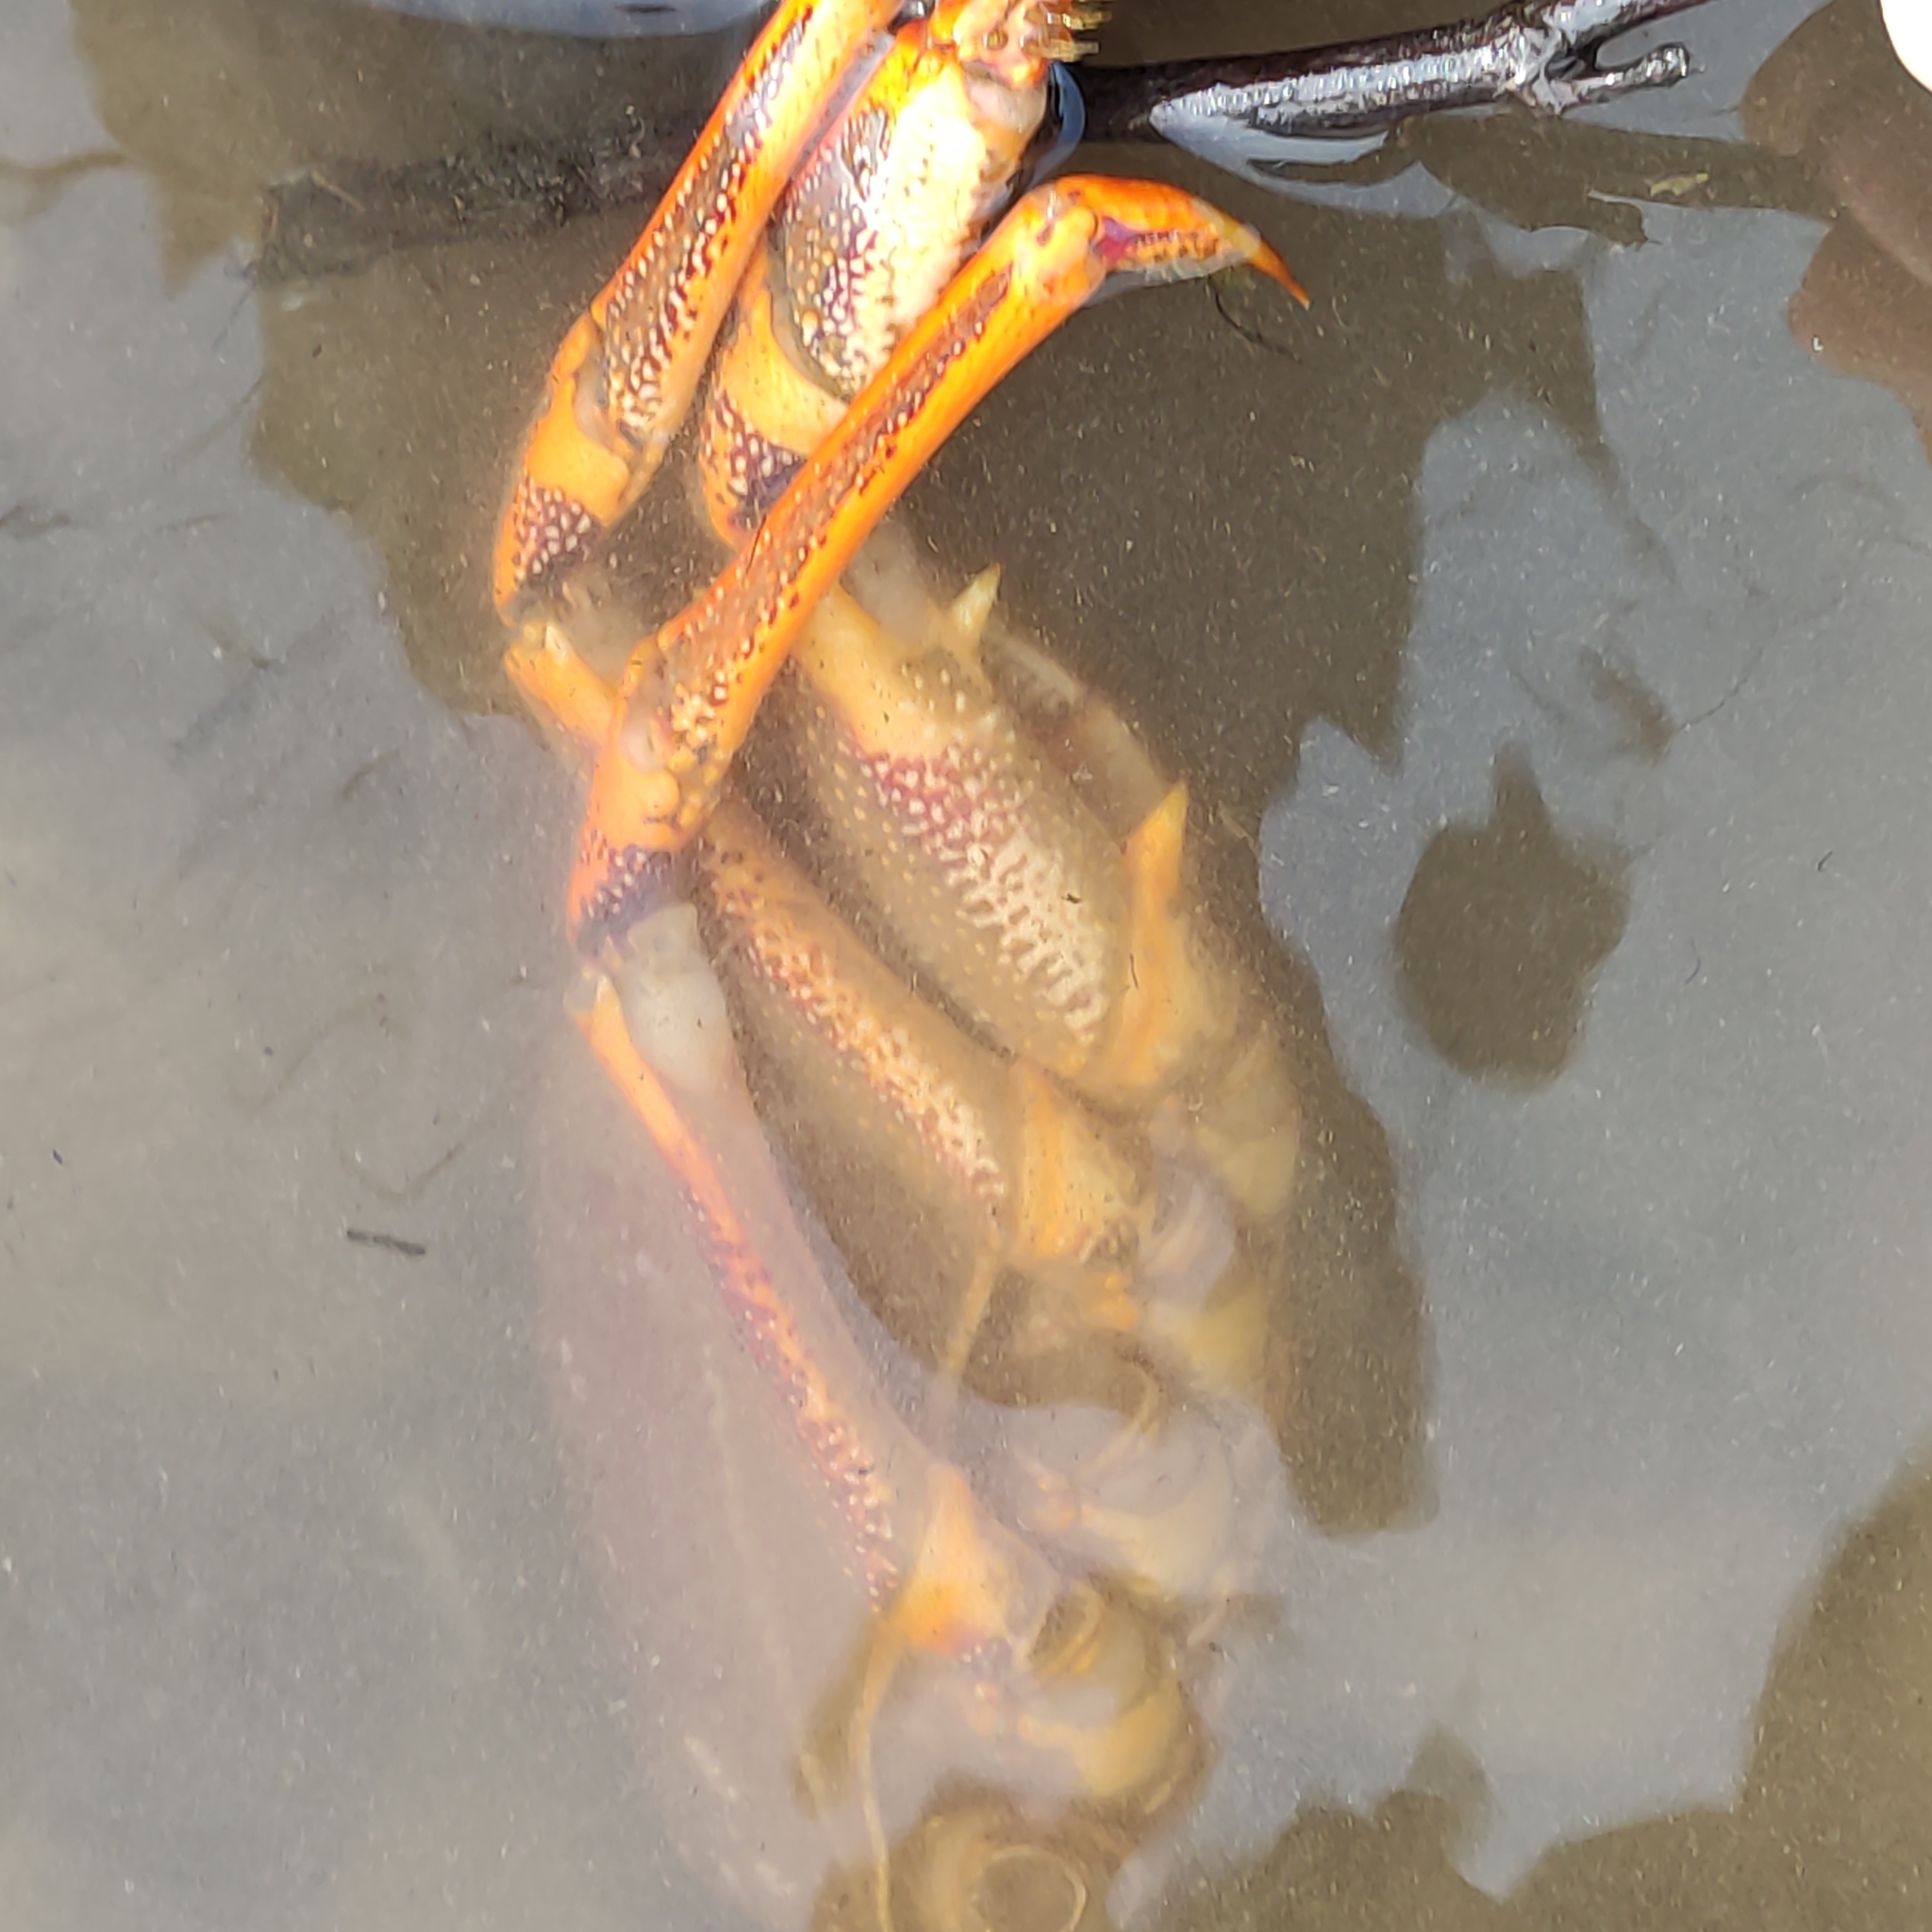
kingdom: Animalia
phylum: Arthropoda
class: Malacostraca
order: Decapoda
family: Palinuridae
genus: Jasus
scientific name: Jasus edwardsii
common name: Red rock lobster
